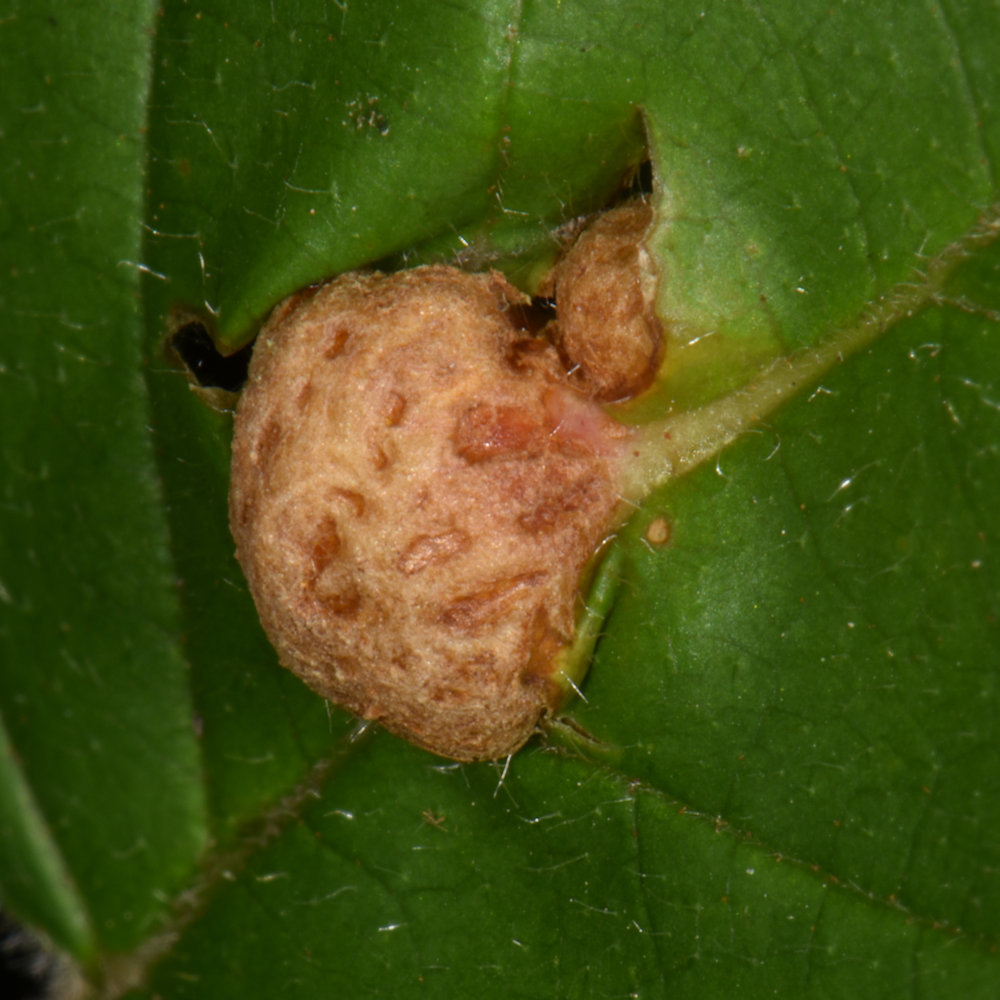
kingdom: Animalia
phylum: Arthropoda
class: Insecta
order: Diptera
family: Cecidomyiidae
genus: Neolasioptera
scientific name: Neolasioptera farinosa
